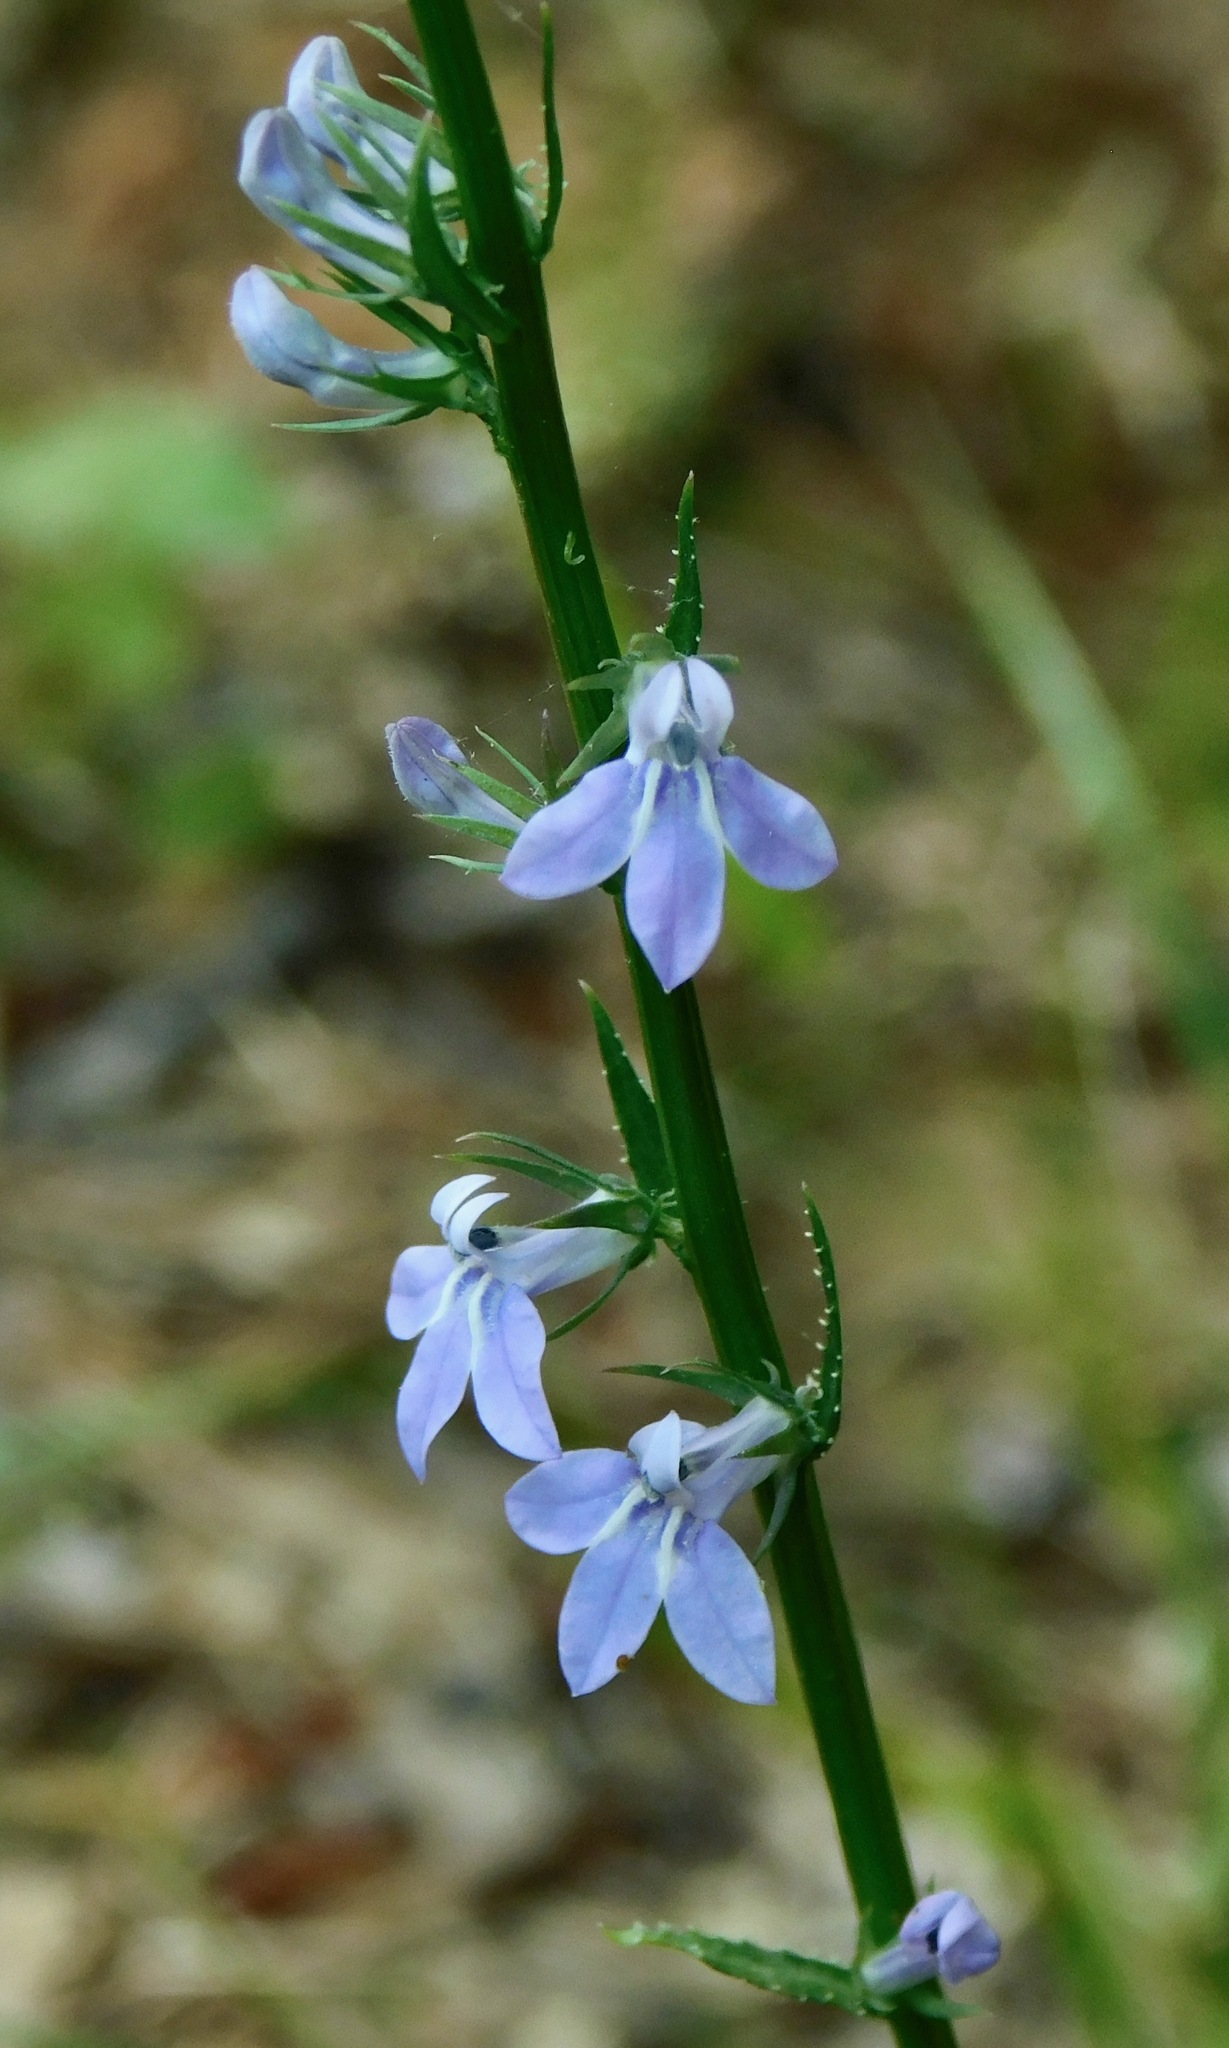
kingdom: Plantae
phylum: Tracheophyta
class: Magnoliopsida
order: Asterales
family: Campanulaceae
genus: Lobelia
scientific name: Lobelia spicata
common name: Pale-spike lobelia
